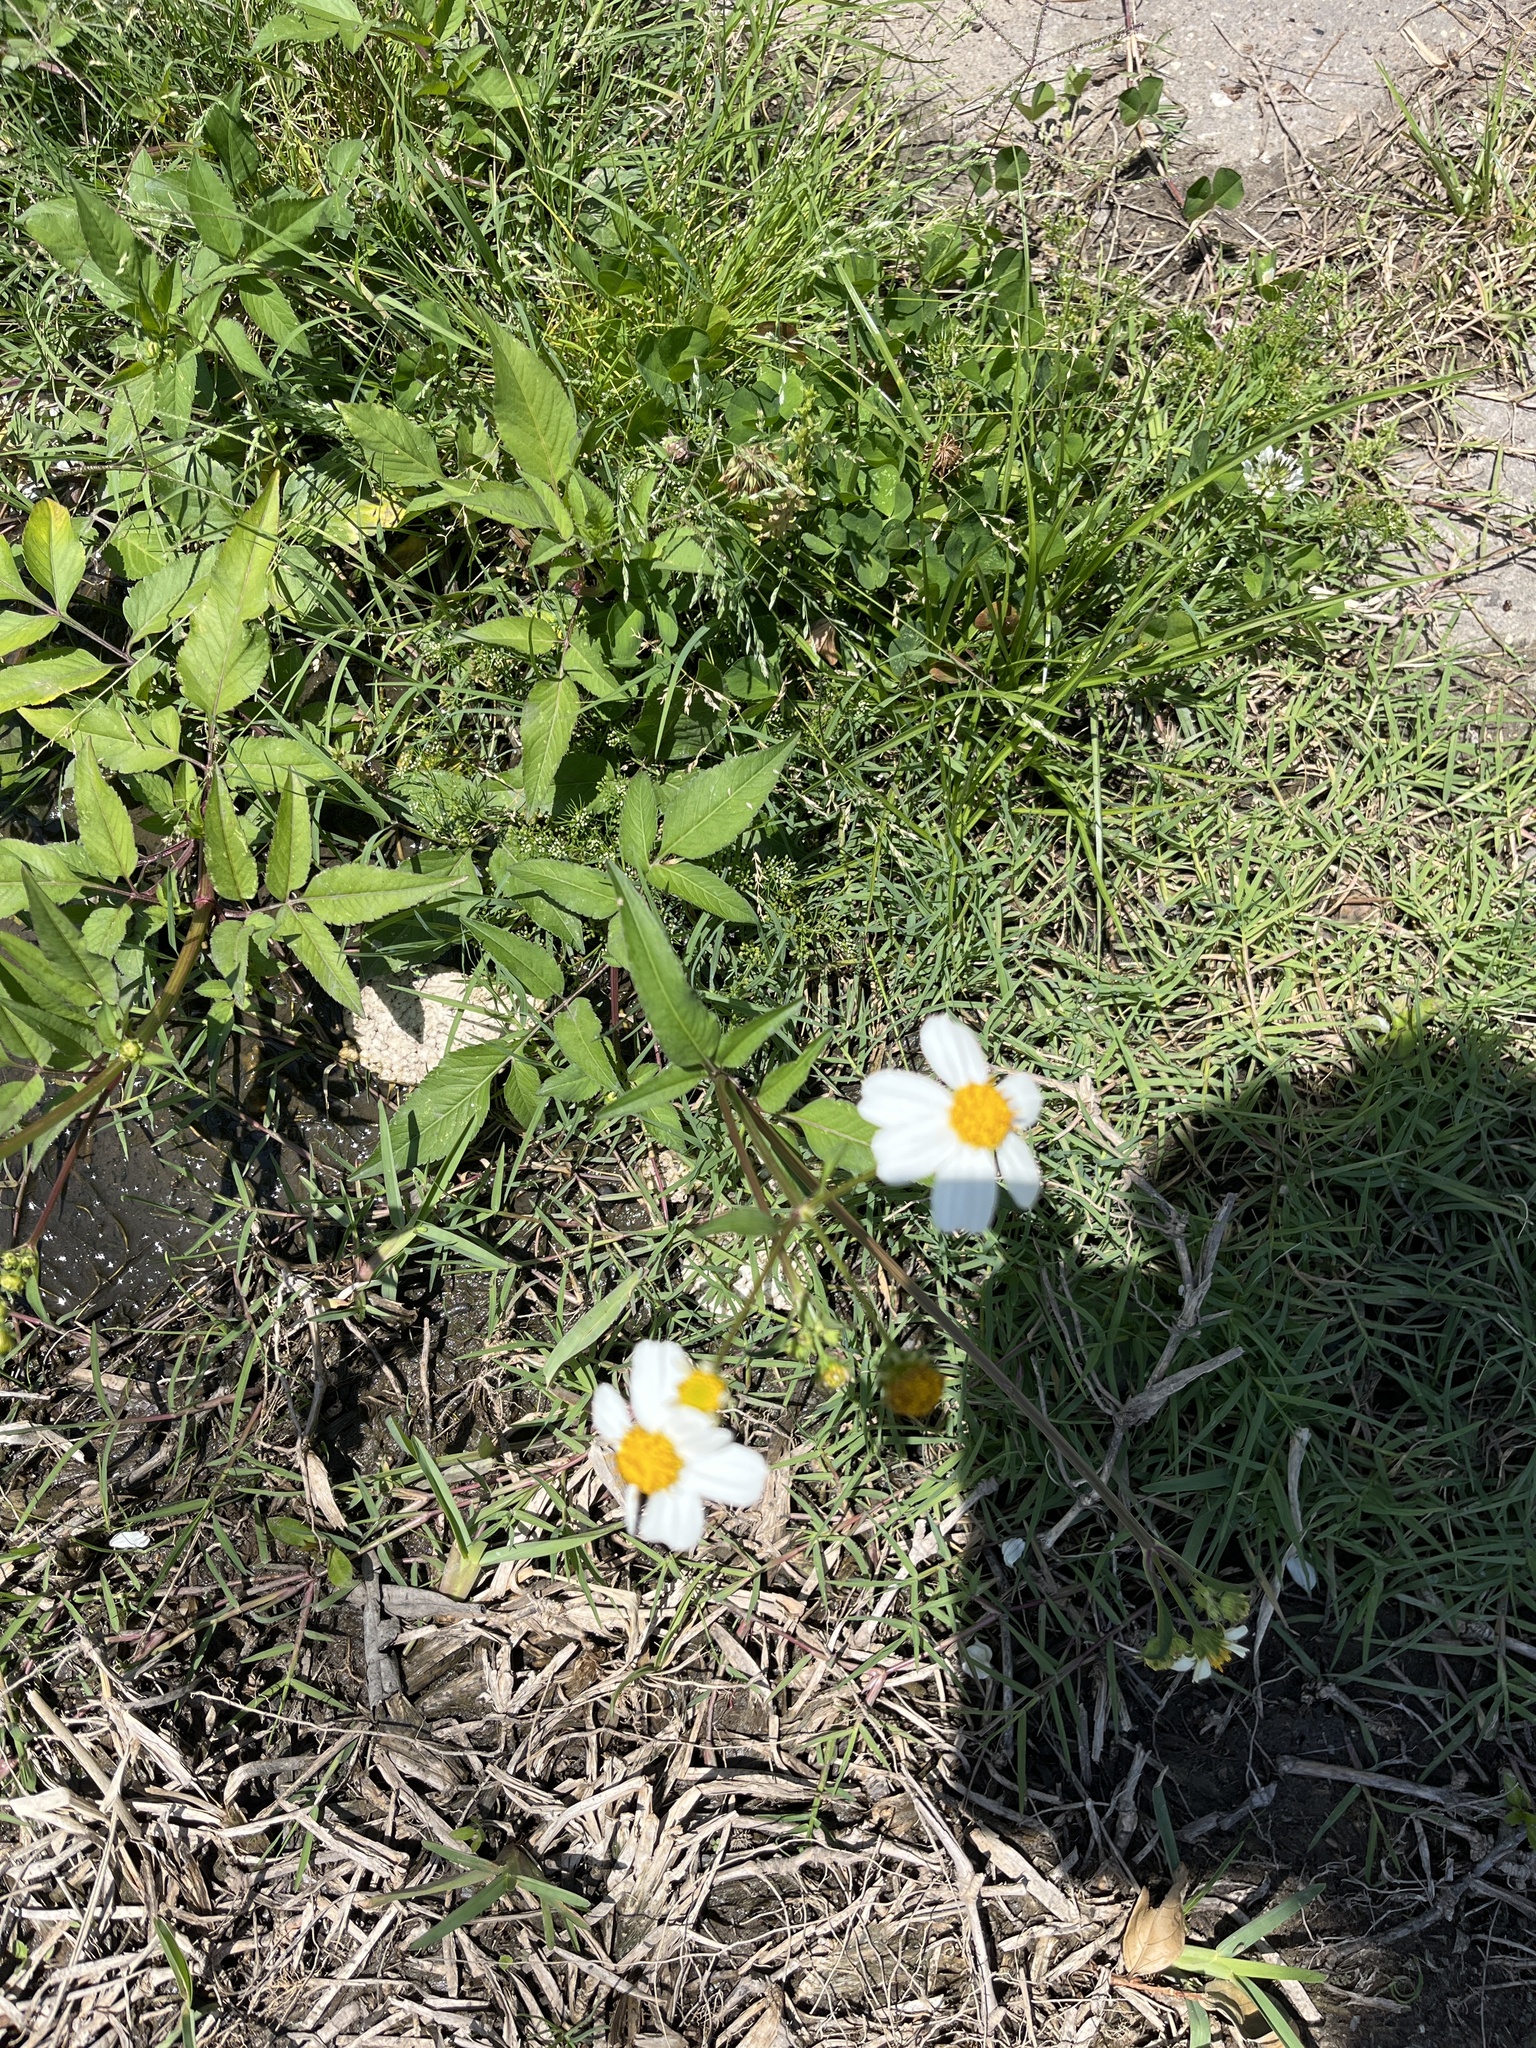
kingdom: Plantae
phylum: Tracheophyta
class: Magnoliopsida
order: Asterales
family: Asteraceae
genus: Bidens
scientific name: Bidens alba
